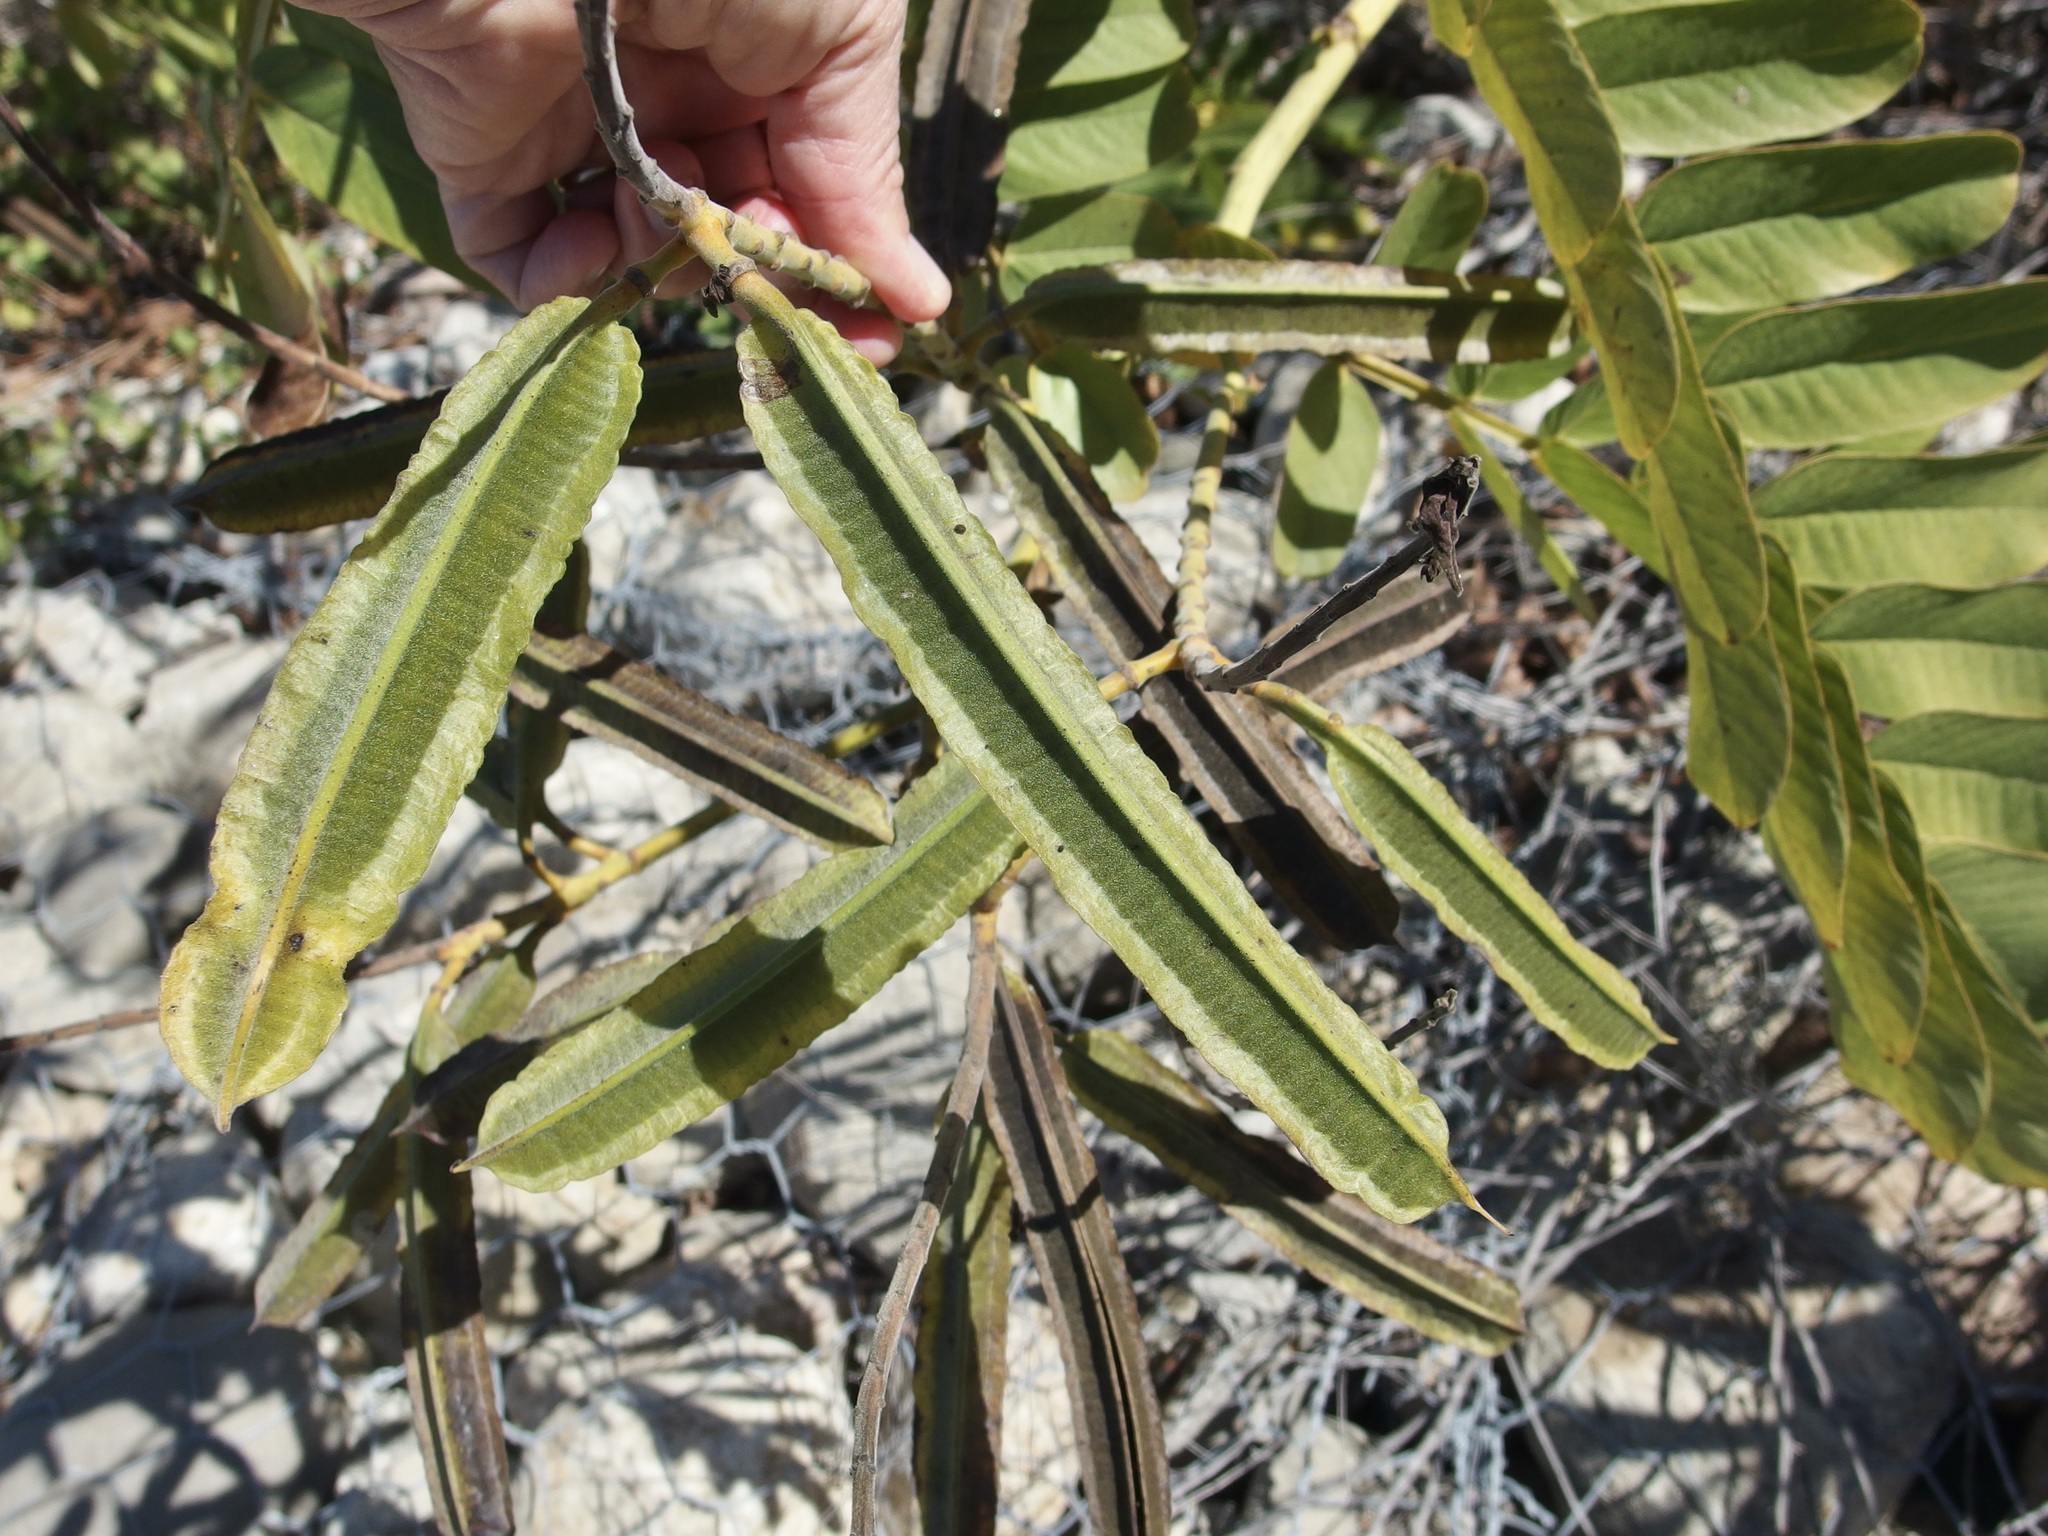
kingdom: Plantae
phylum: Tracheophyta
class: Magnoliopsida
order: Fabales
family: Fabaceae
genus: Senna
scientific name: Senna alata
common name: Emperor's candlesticks
